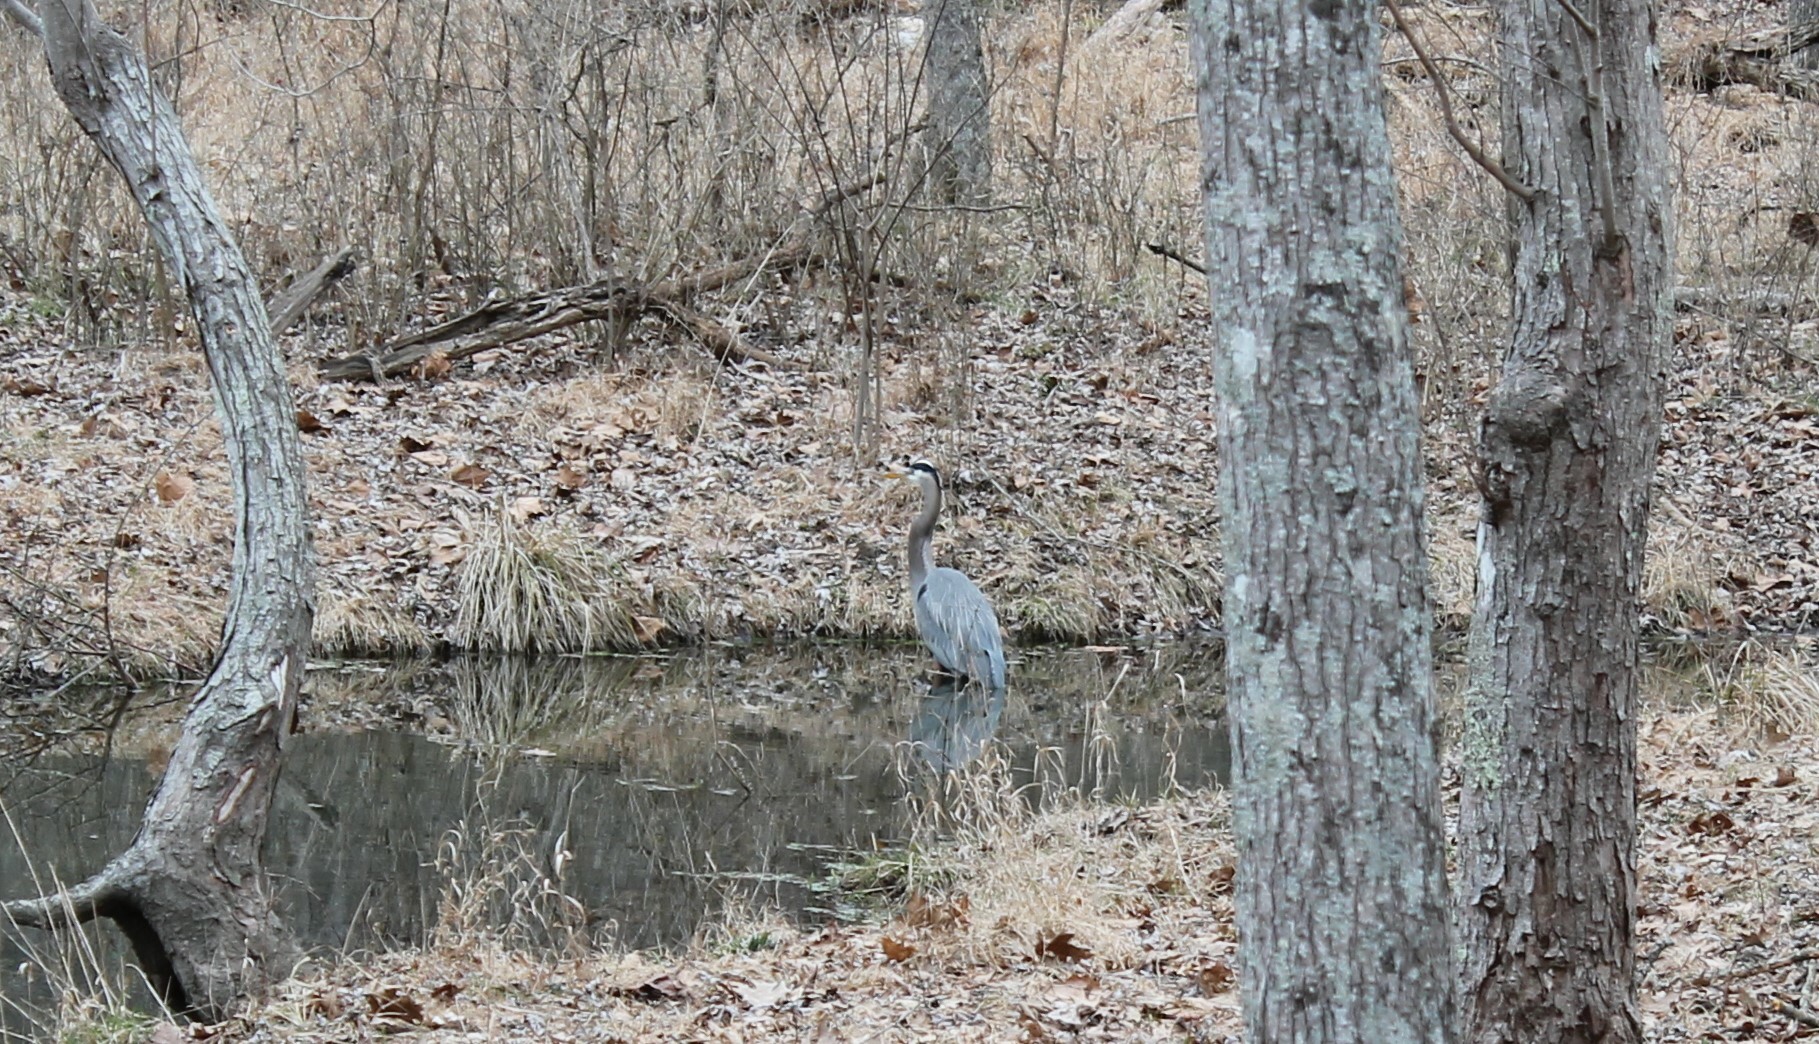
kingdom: Animalia
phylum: Chordata
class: Aves
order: Pelecaniformes
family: Ardeidae
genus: Ardea
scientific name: Ardea herodias
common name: Great blue heron
